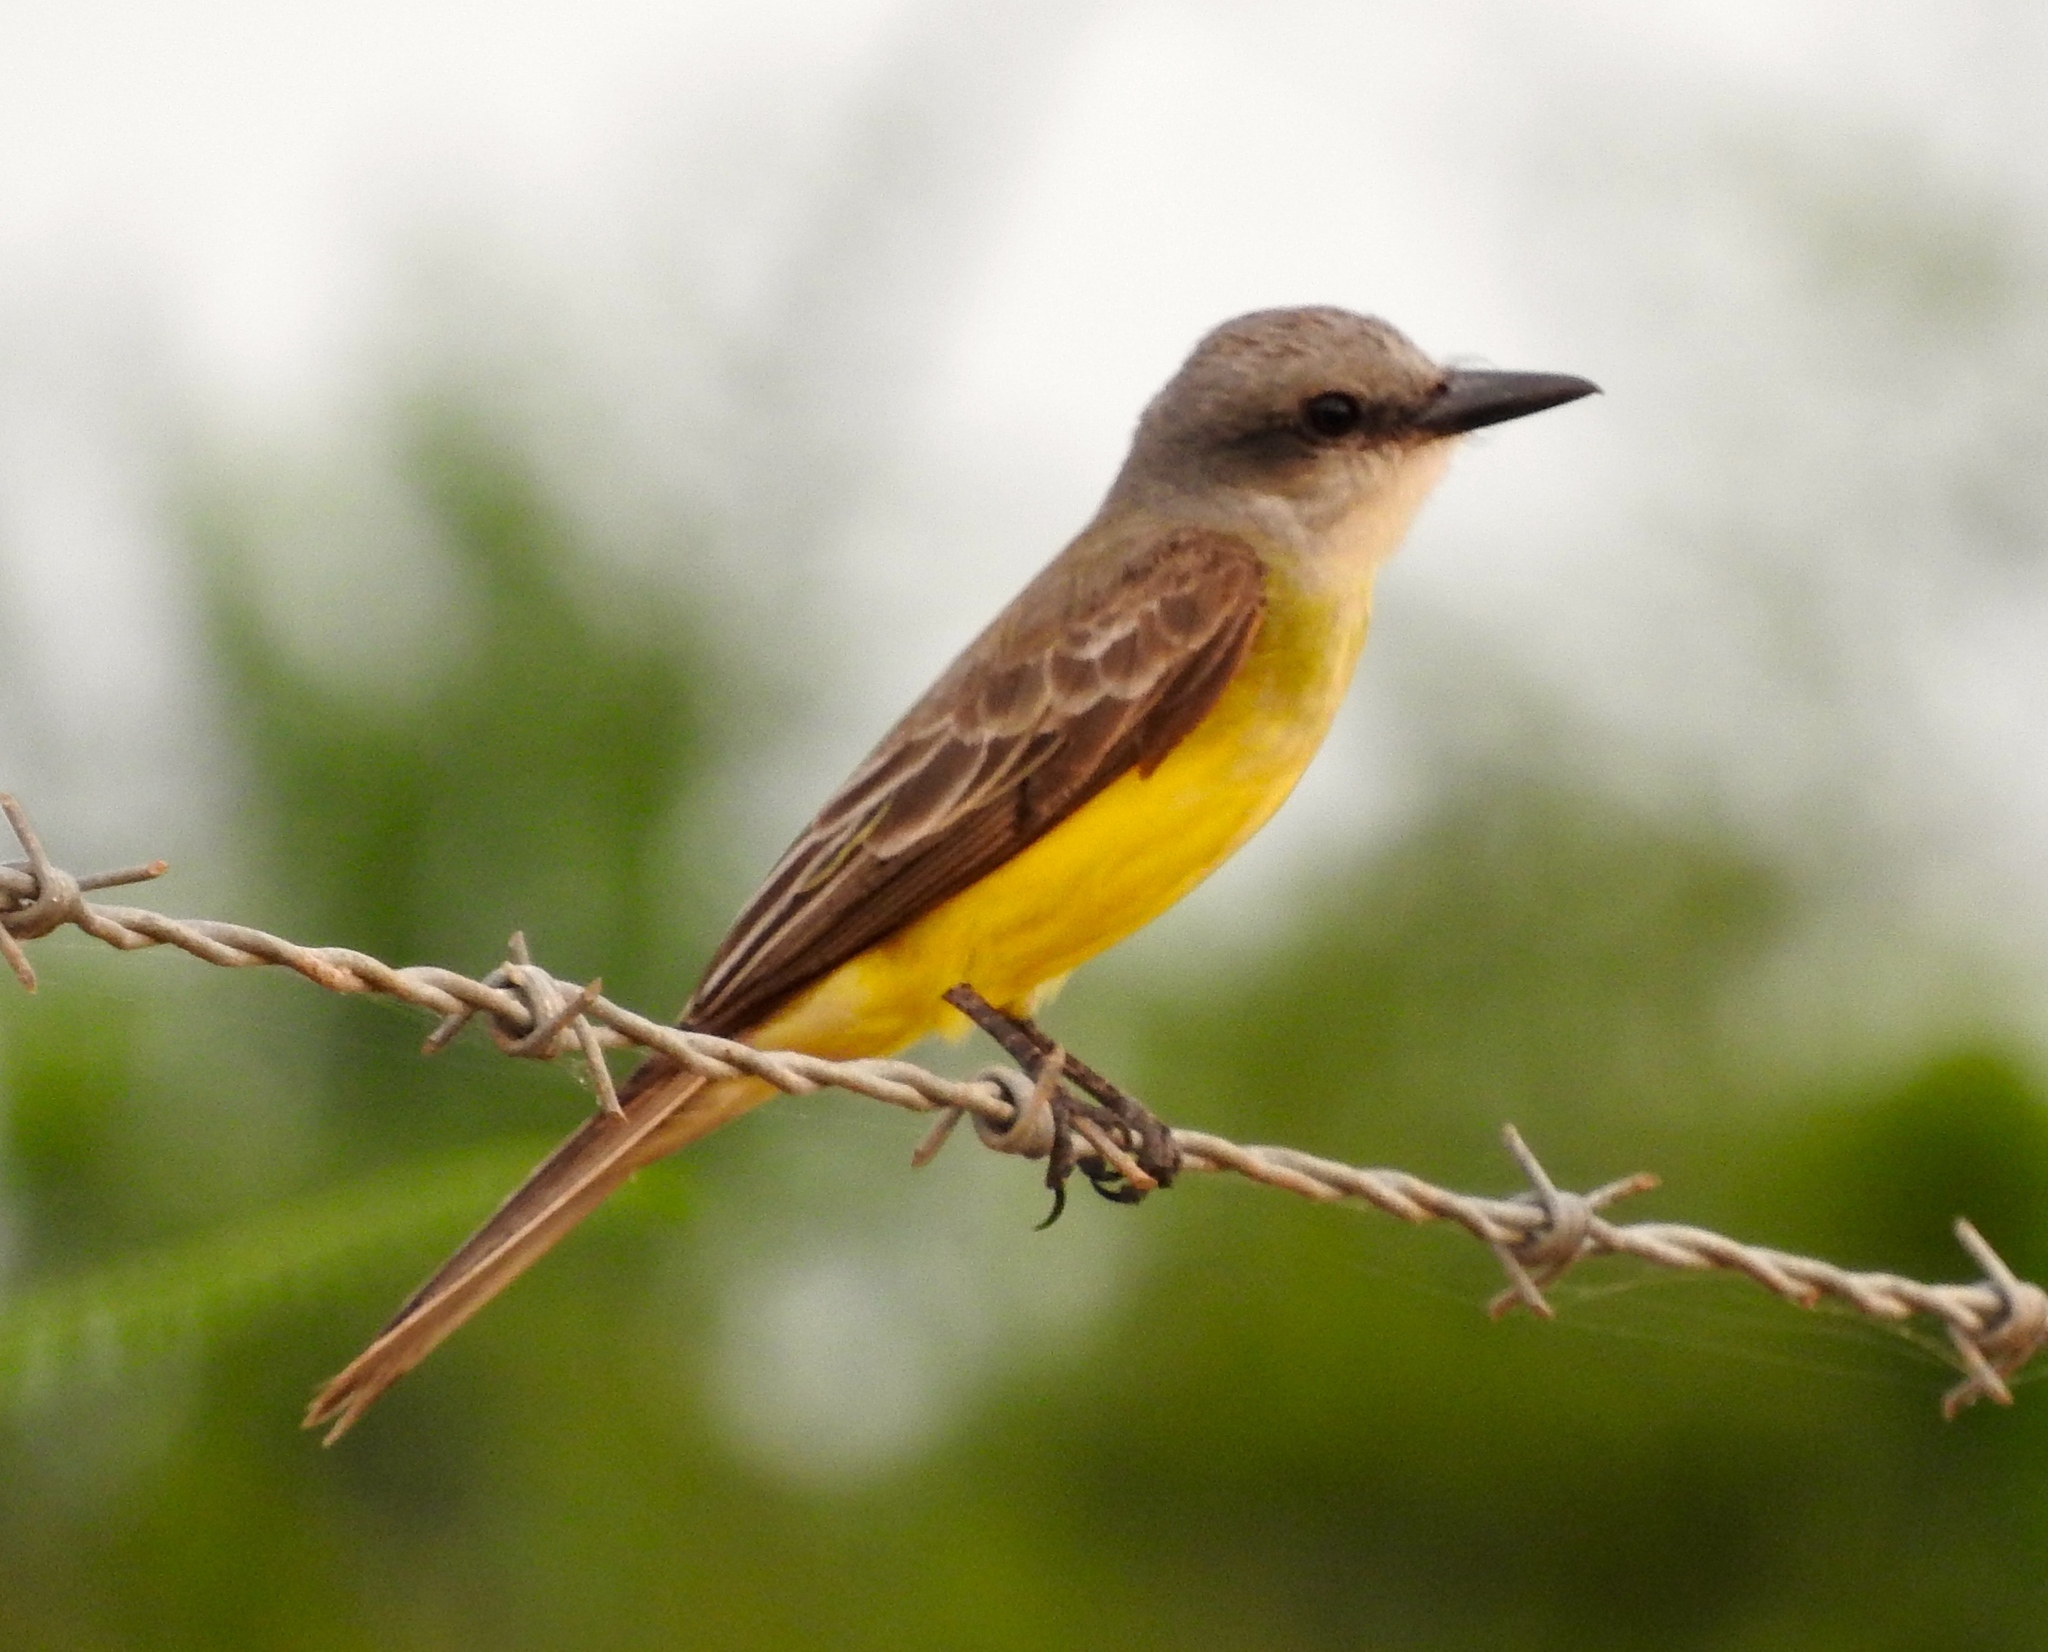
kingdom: Animalia
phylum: Chordata
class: Aves
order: Passeriformes
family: Tyrannidae
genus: Tyrannus
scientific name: Tyrannus melancholicus
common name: Tropical kingbird
